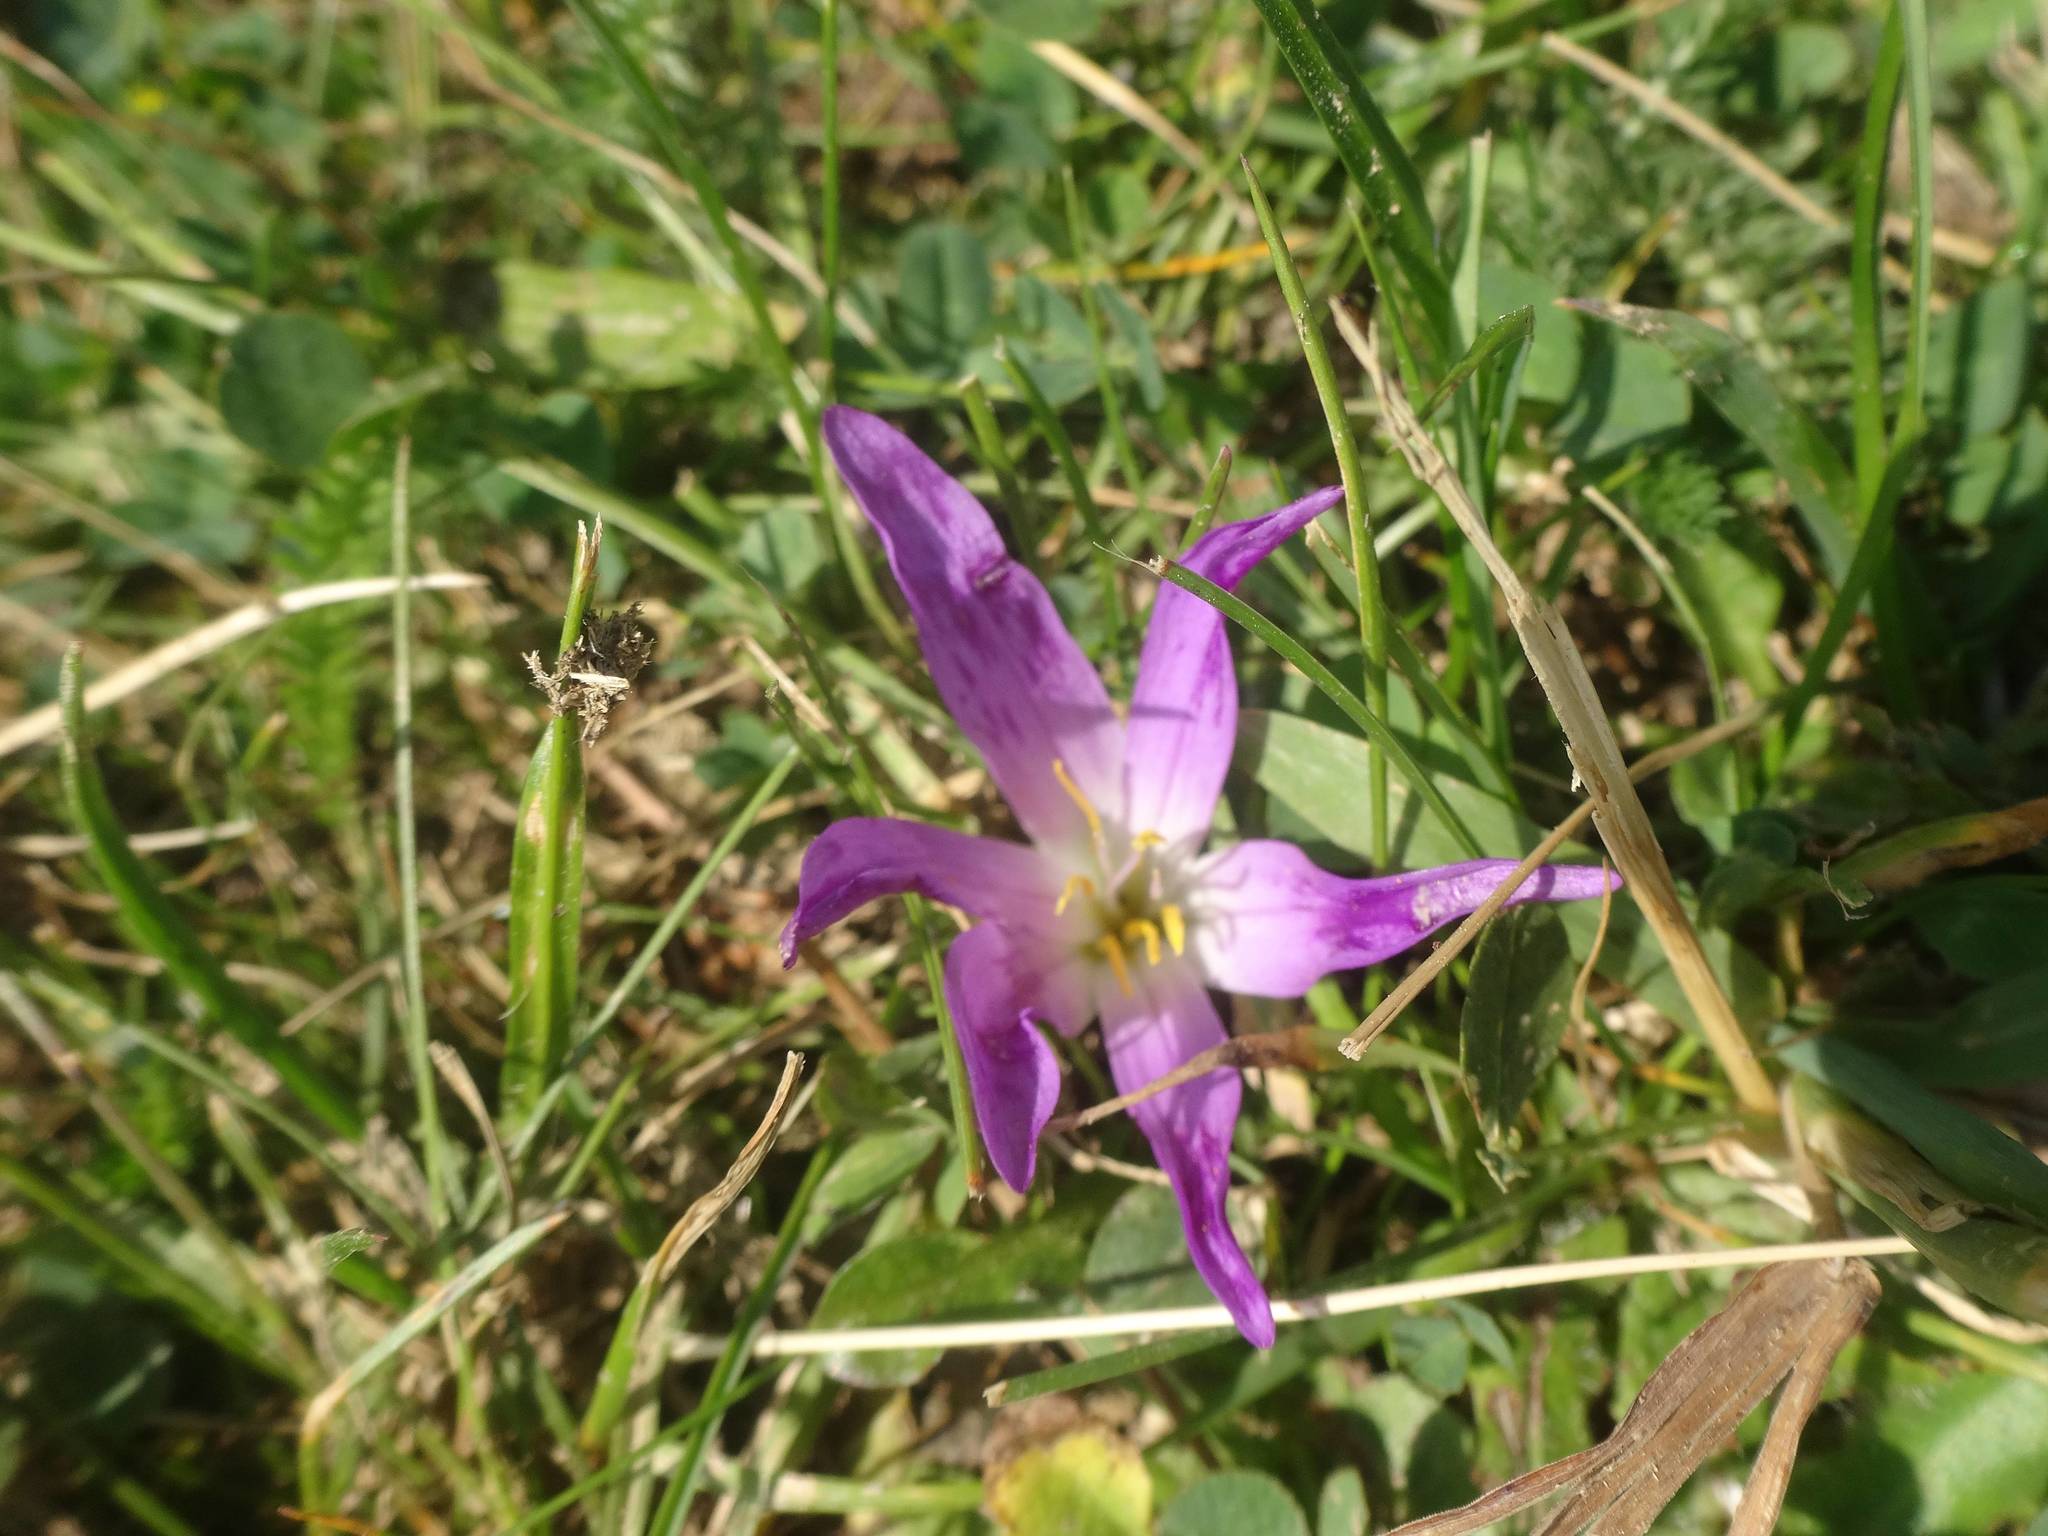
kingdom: Plantae
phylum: Tracheophyta
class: Liliopsida
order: Liliales
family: Colchicaceae
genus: Colchicum
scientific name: Colchicum montanum
